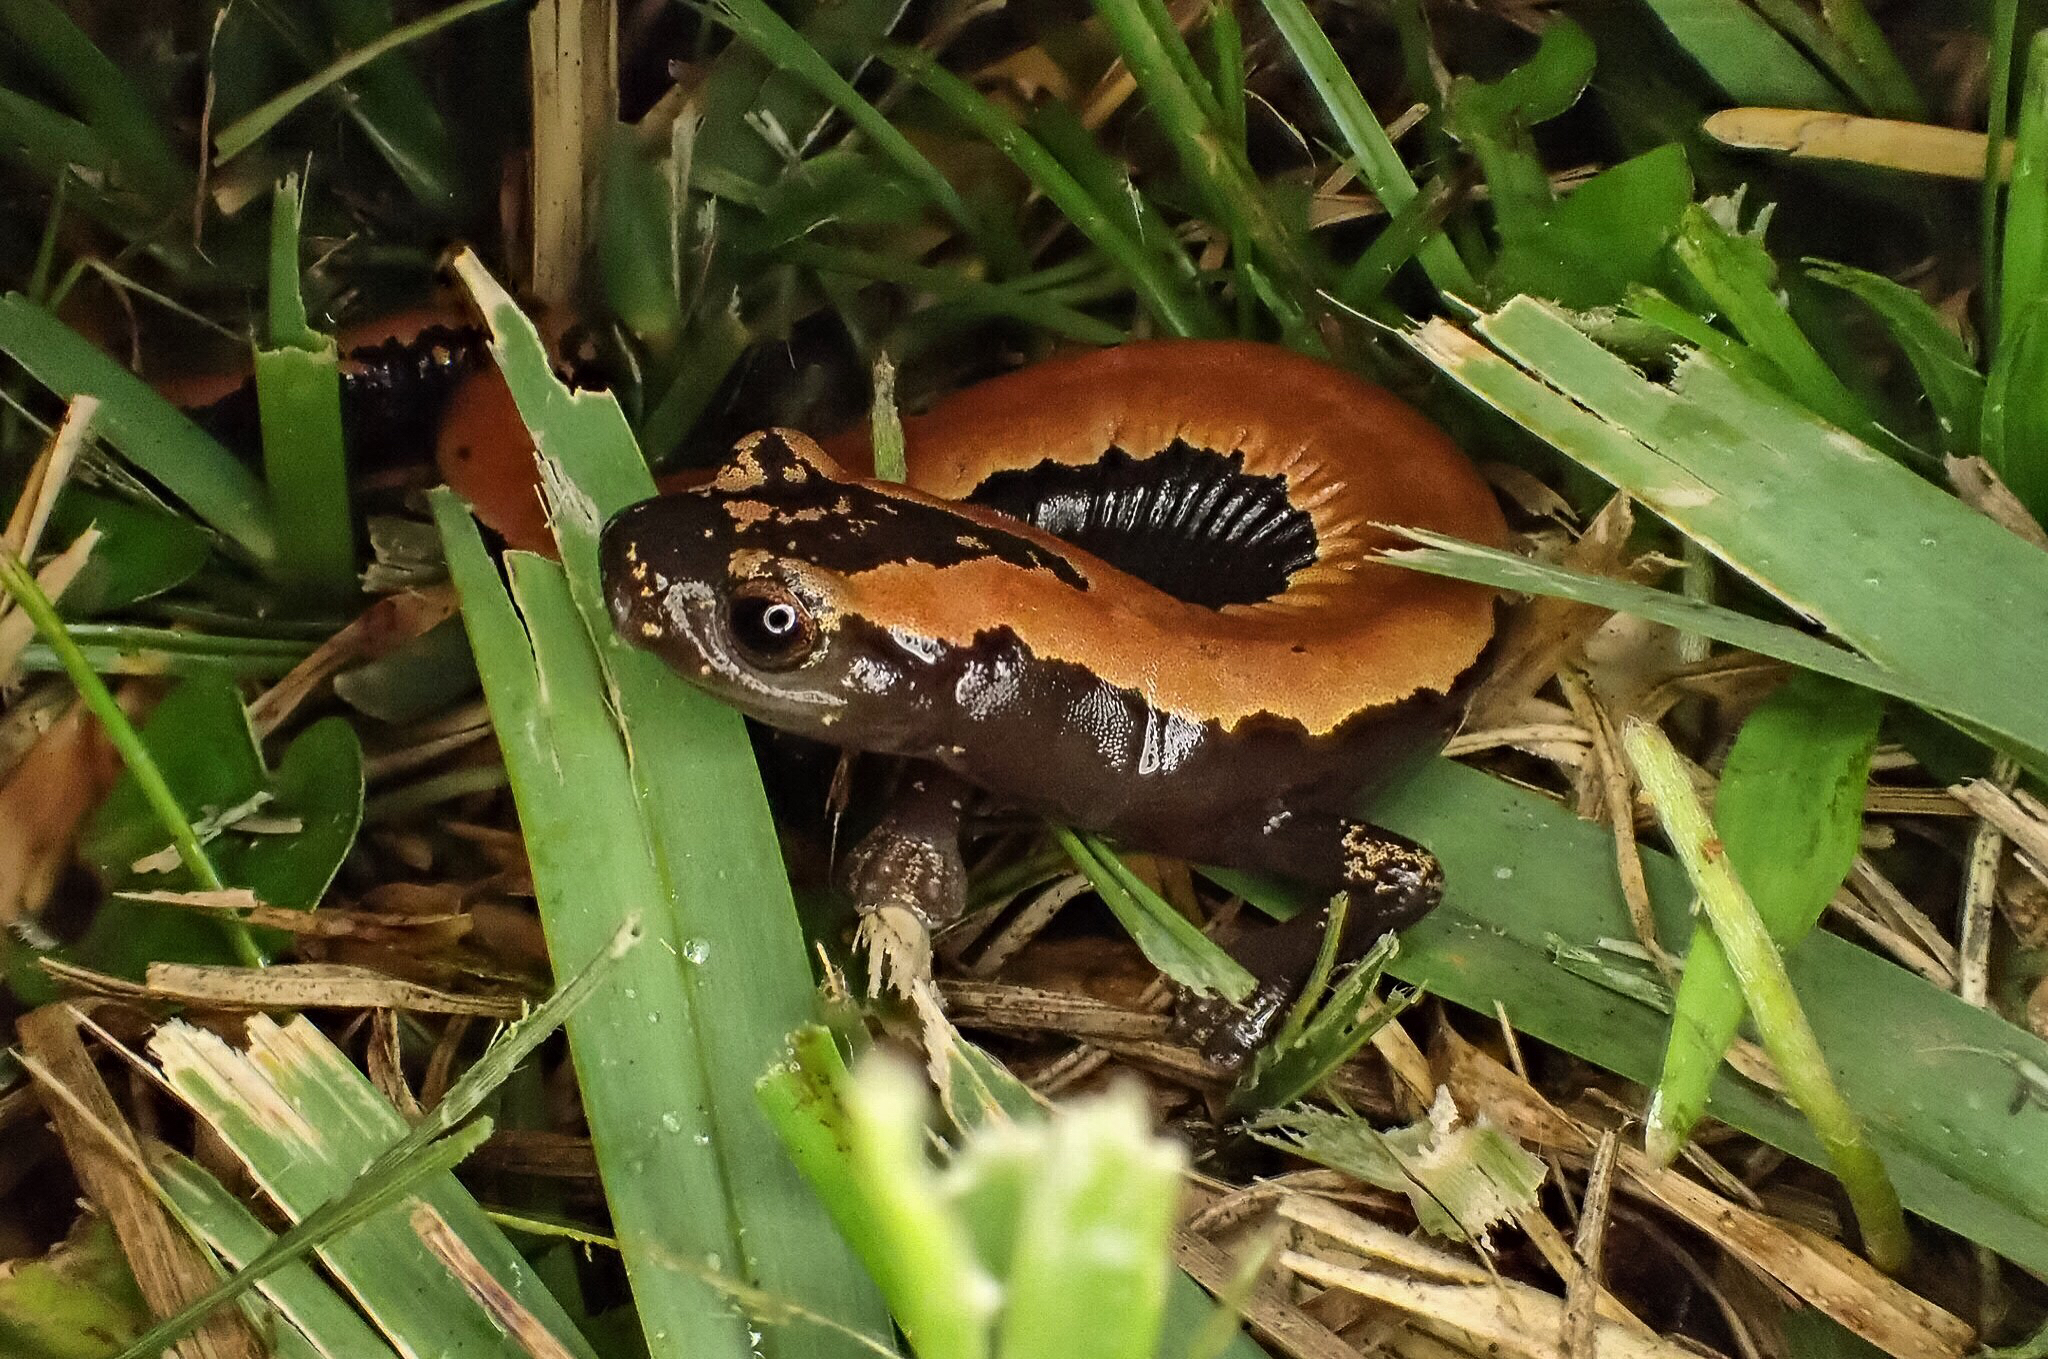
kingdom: Animalia
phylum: Chordata
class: Amphibia
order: Caudata
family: Plethodontidae
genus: Bolitoglossa
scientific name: Bolitoglossa platydactyla
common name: Broad-footed salamander
